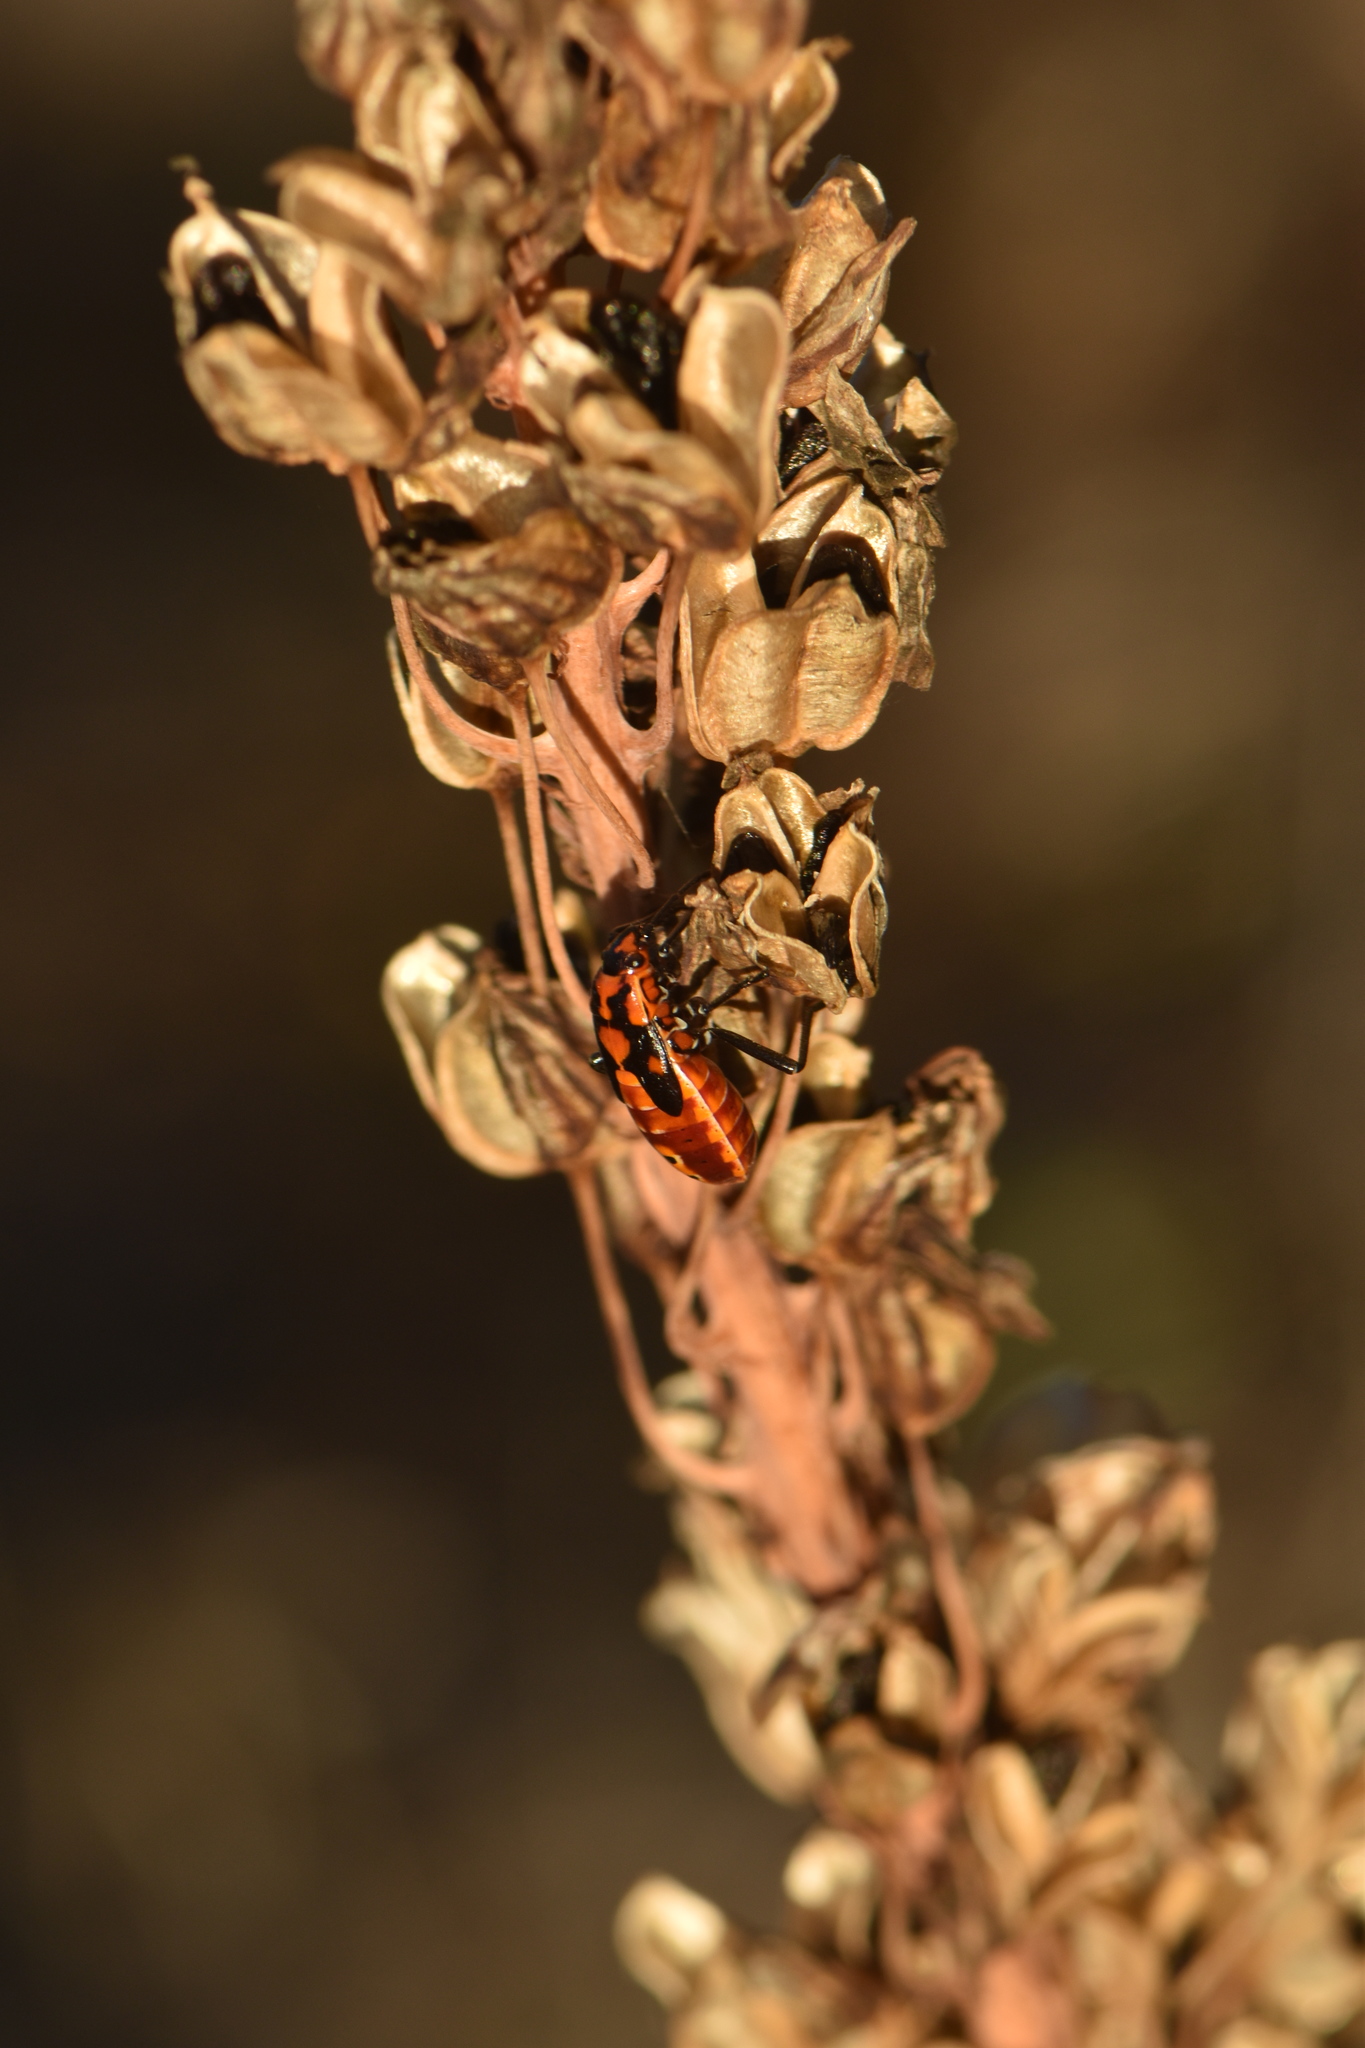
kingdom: Animalia
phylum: Arthropoda
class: Insecta
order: Hemiptera
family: Lygaeidae
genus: Spilostethus
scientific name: Spilostethus pandurus
